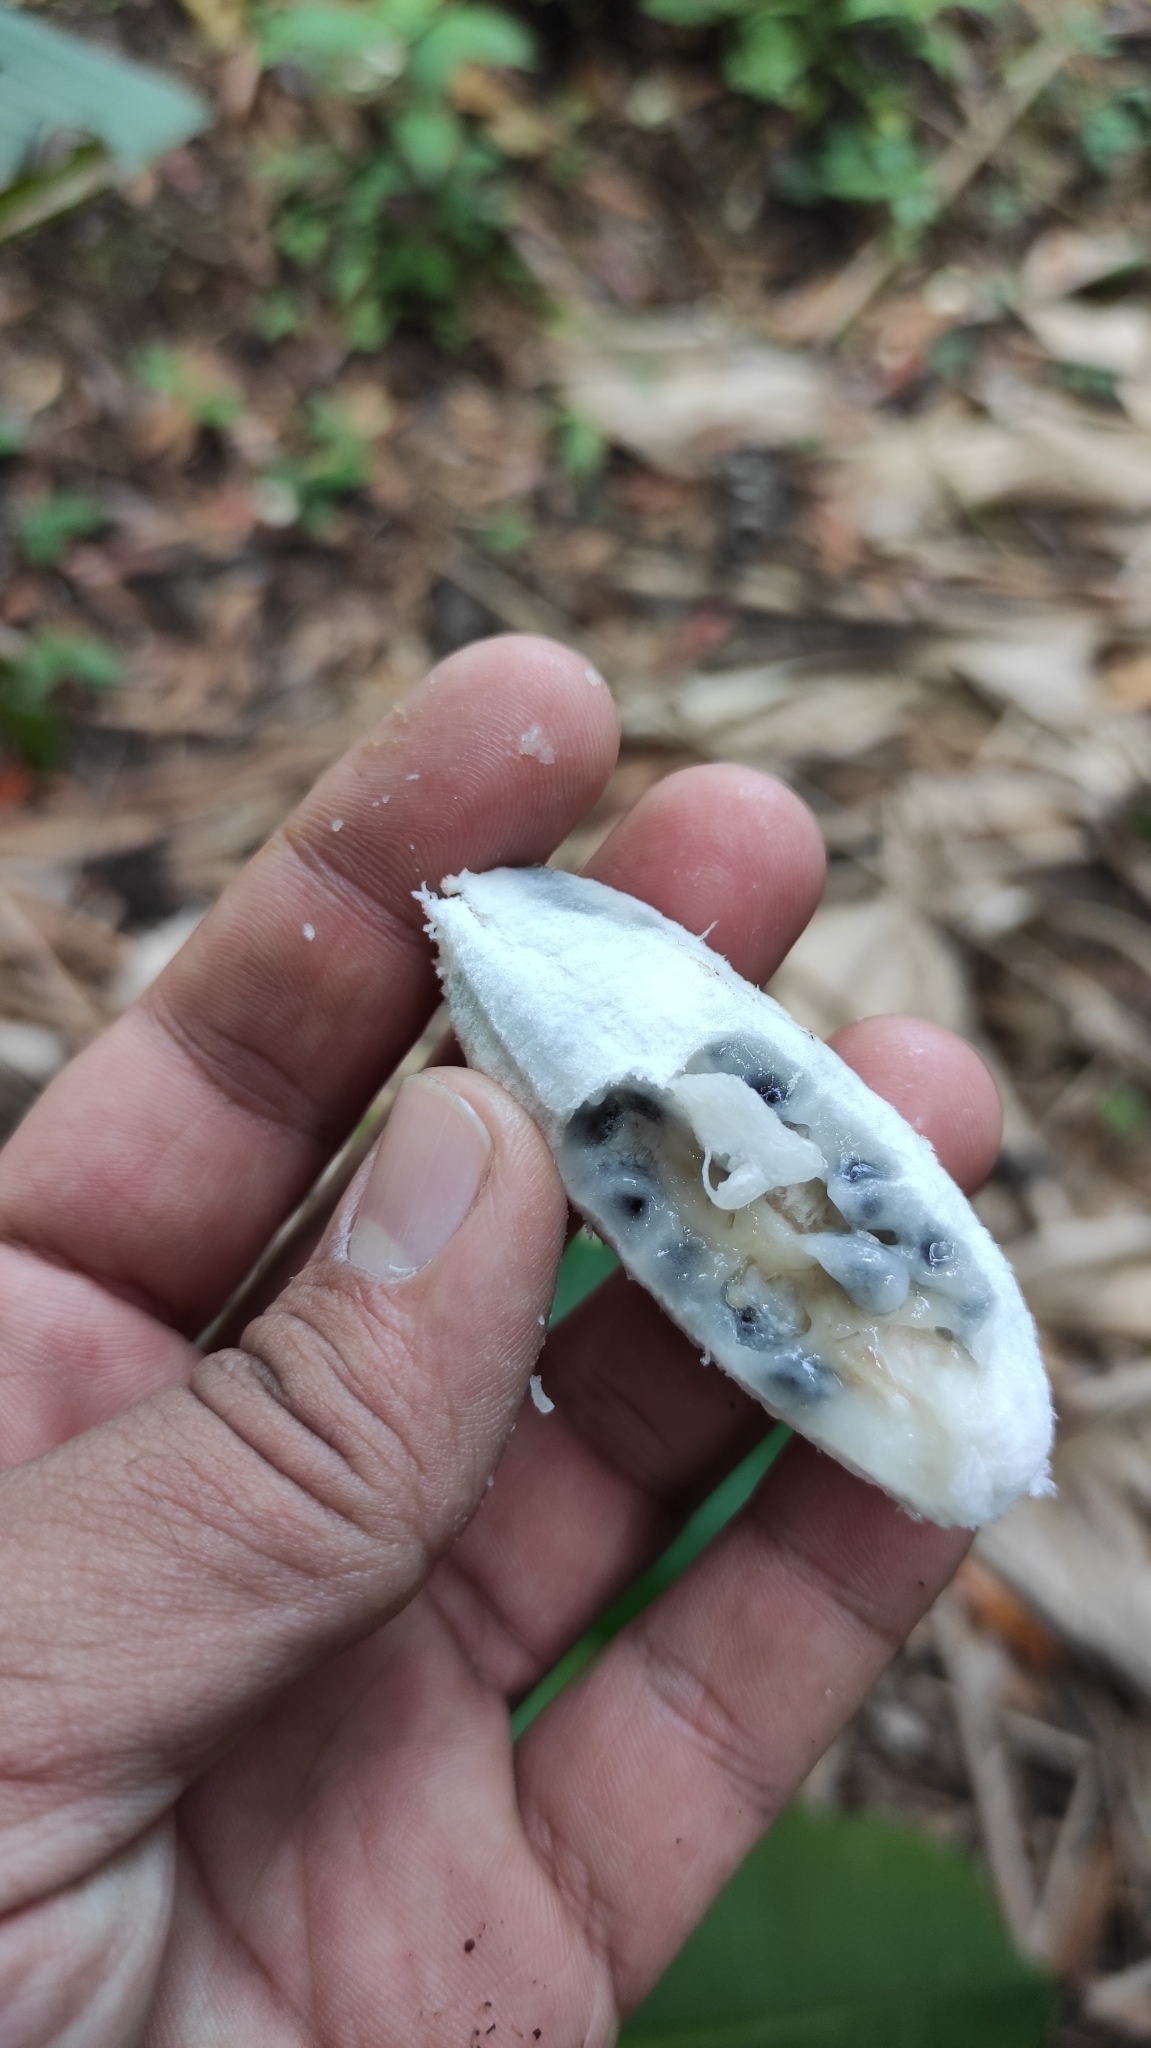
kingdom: Plantae
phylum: Tracheophyta
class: Liliopsida
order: Zingiberales
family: Musaceae
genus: Musa
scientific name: Musa velutina
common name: Pink velvet banana
